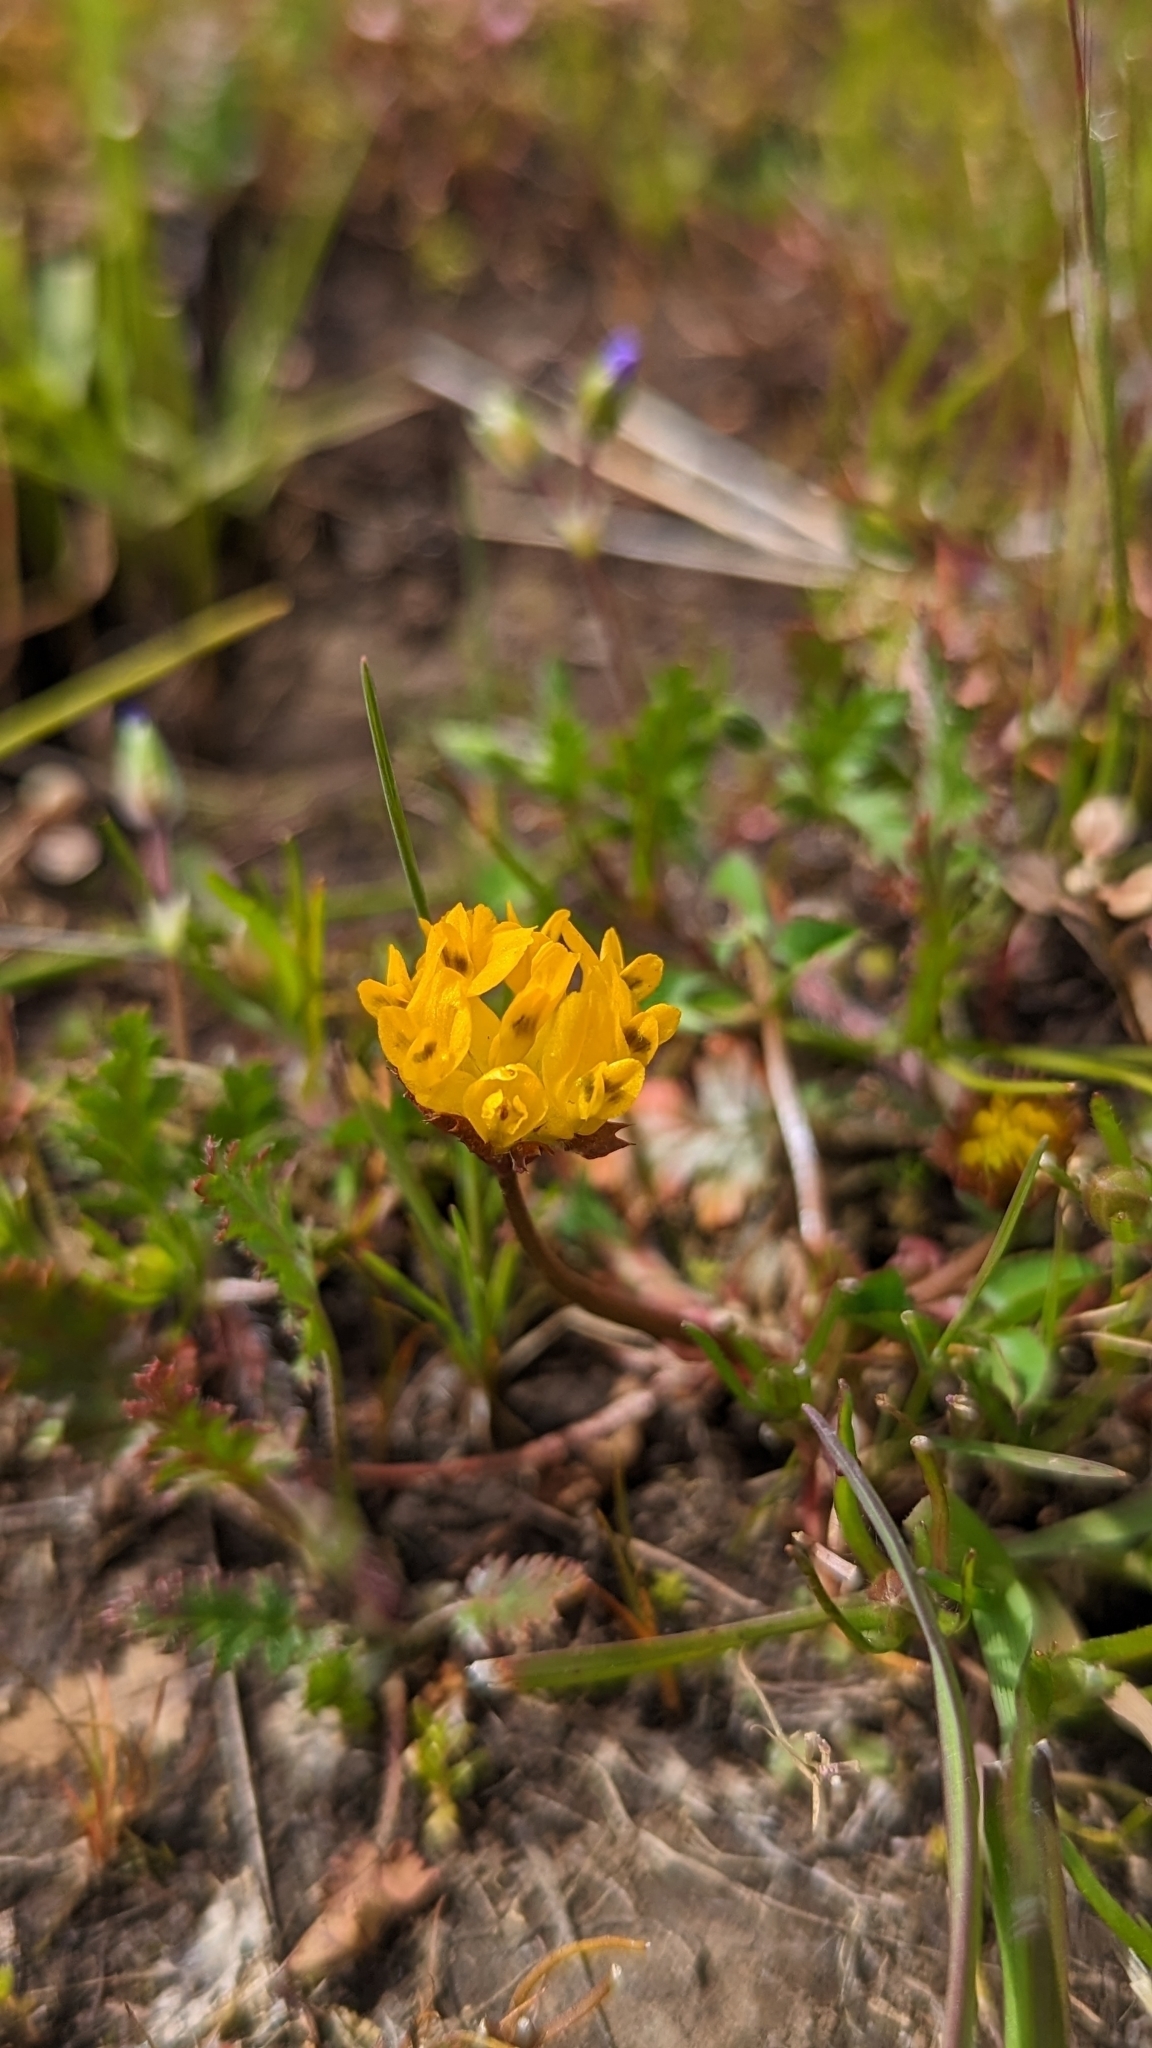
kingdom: Plantae
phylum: Tracheophyta
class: Magnoliopsida
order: Fabales
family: Fabaceae
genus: Trifolium
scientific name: Trifolium jokerstii
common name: Butte county golden clover
